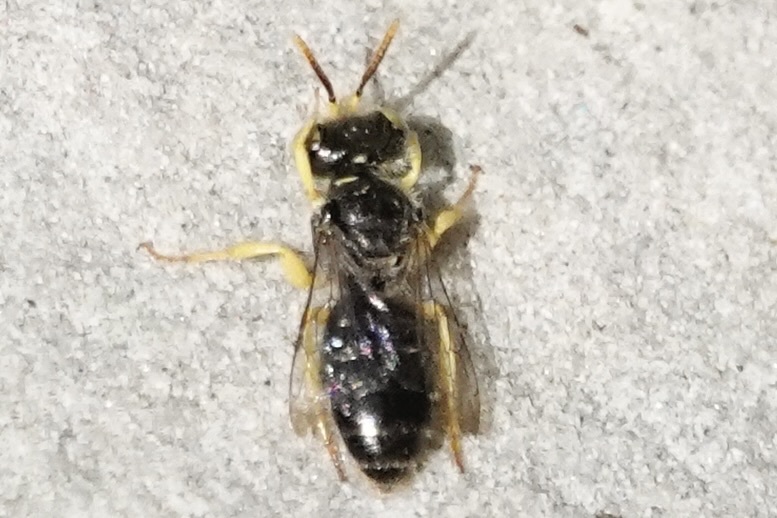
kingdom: Animalia
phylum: Arthropoda
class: Insecta
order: Hymenoptera
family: Andrenidae
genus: Calliopsis
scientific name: Calliopsis andreniformis
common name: Eastern calliopsis bee
